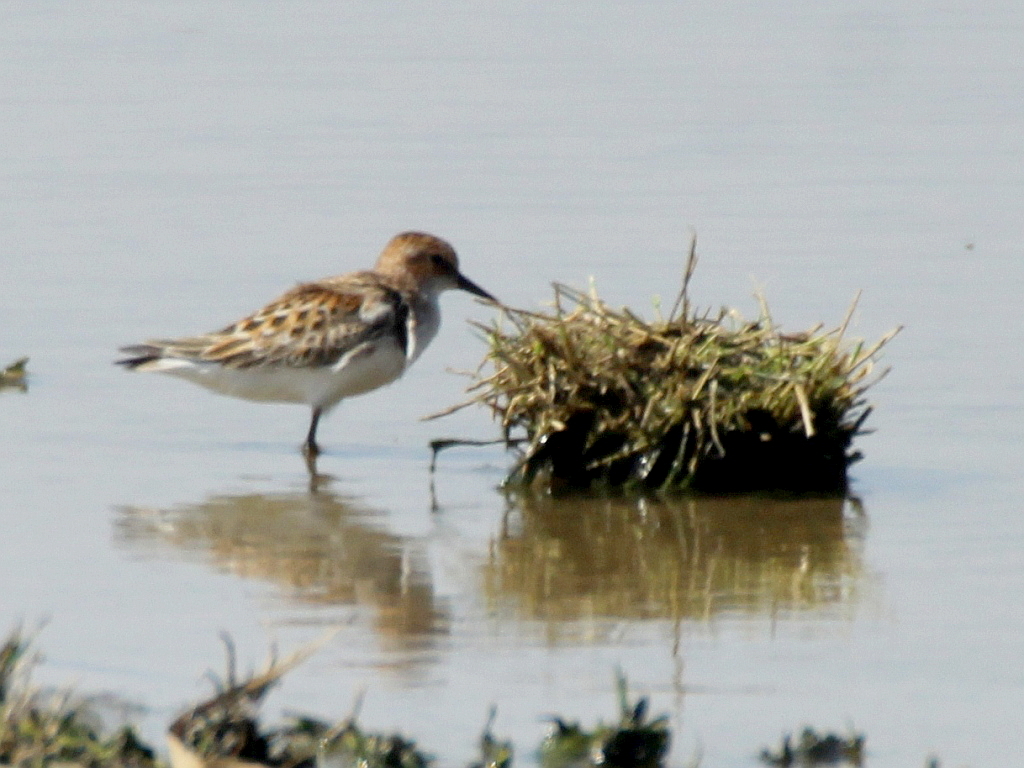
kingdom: Animalia
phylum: Chordata
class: Aves
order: Charadriiformes
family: Scolopacidae
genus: Calidris
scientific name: Calidris minuta
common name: Little stint
